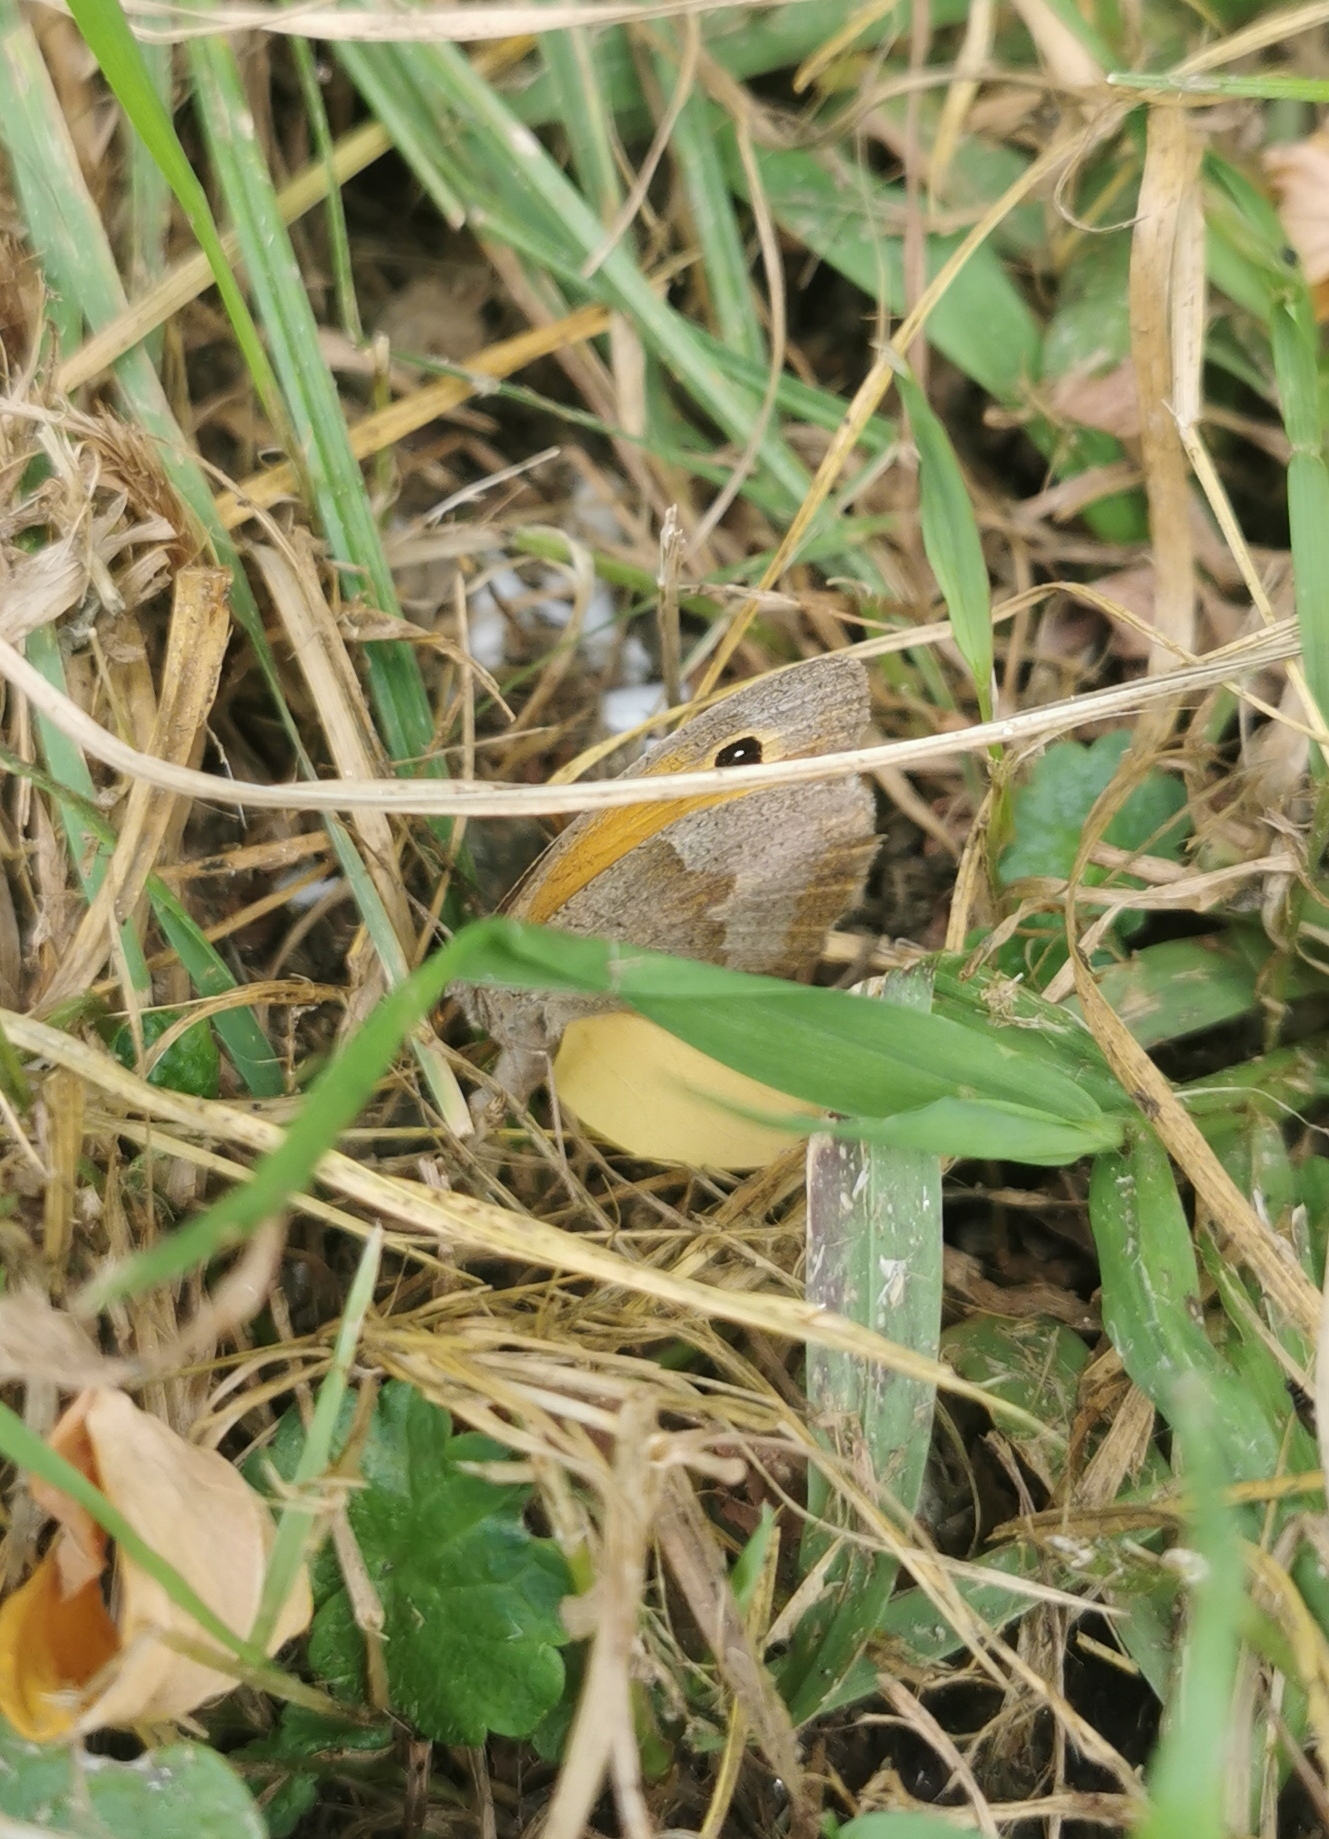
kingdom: Animalia
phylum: Arthropoda
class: Insecta
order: Lepidoptera
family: Nymphalidae
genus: Maniola
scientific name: Maniola jurtina
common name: Meadow brown
